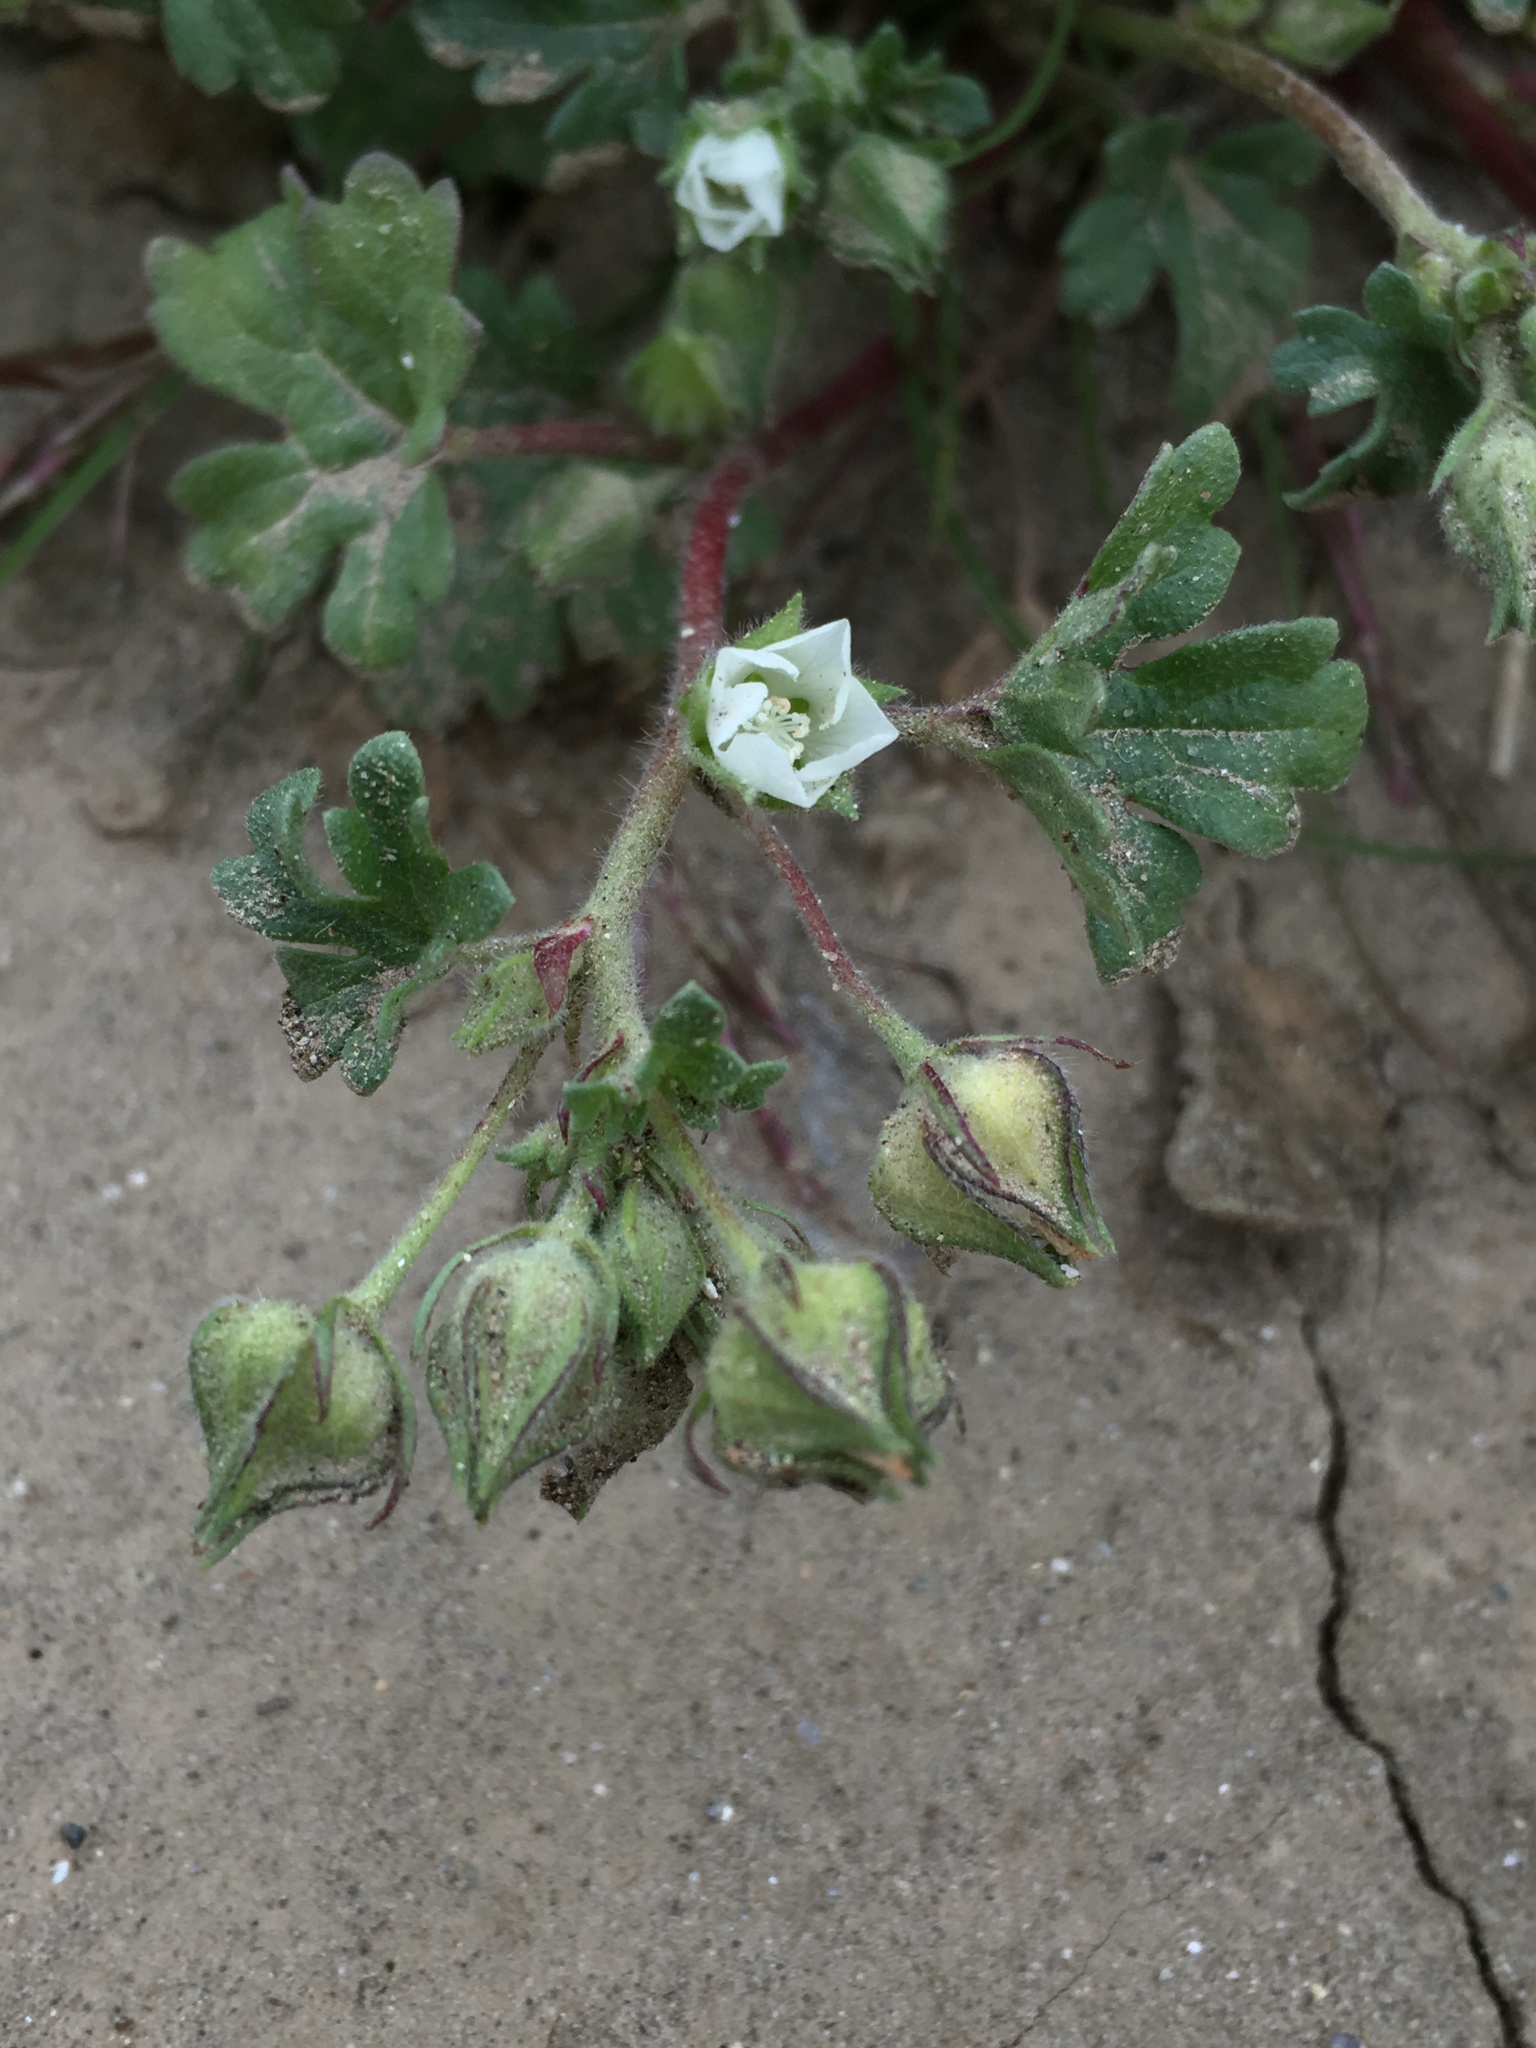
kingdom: Plantae
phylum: Tracheophyta
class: Magnoliopsida
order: Malvales
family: Malvaceae
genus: Eremalche
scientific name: Eremalche exilis
